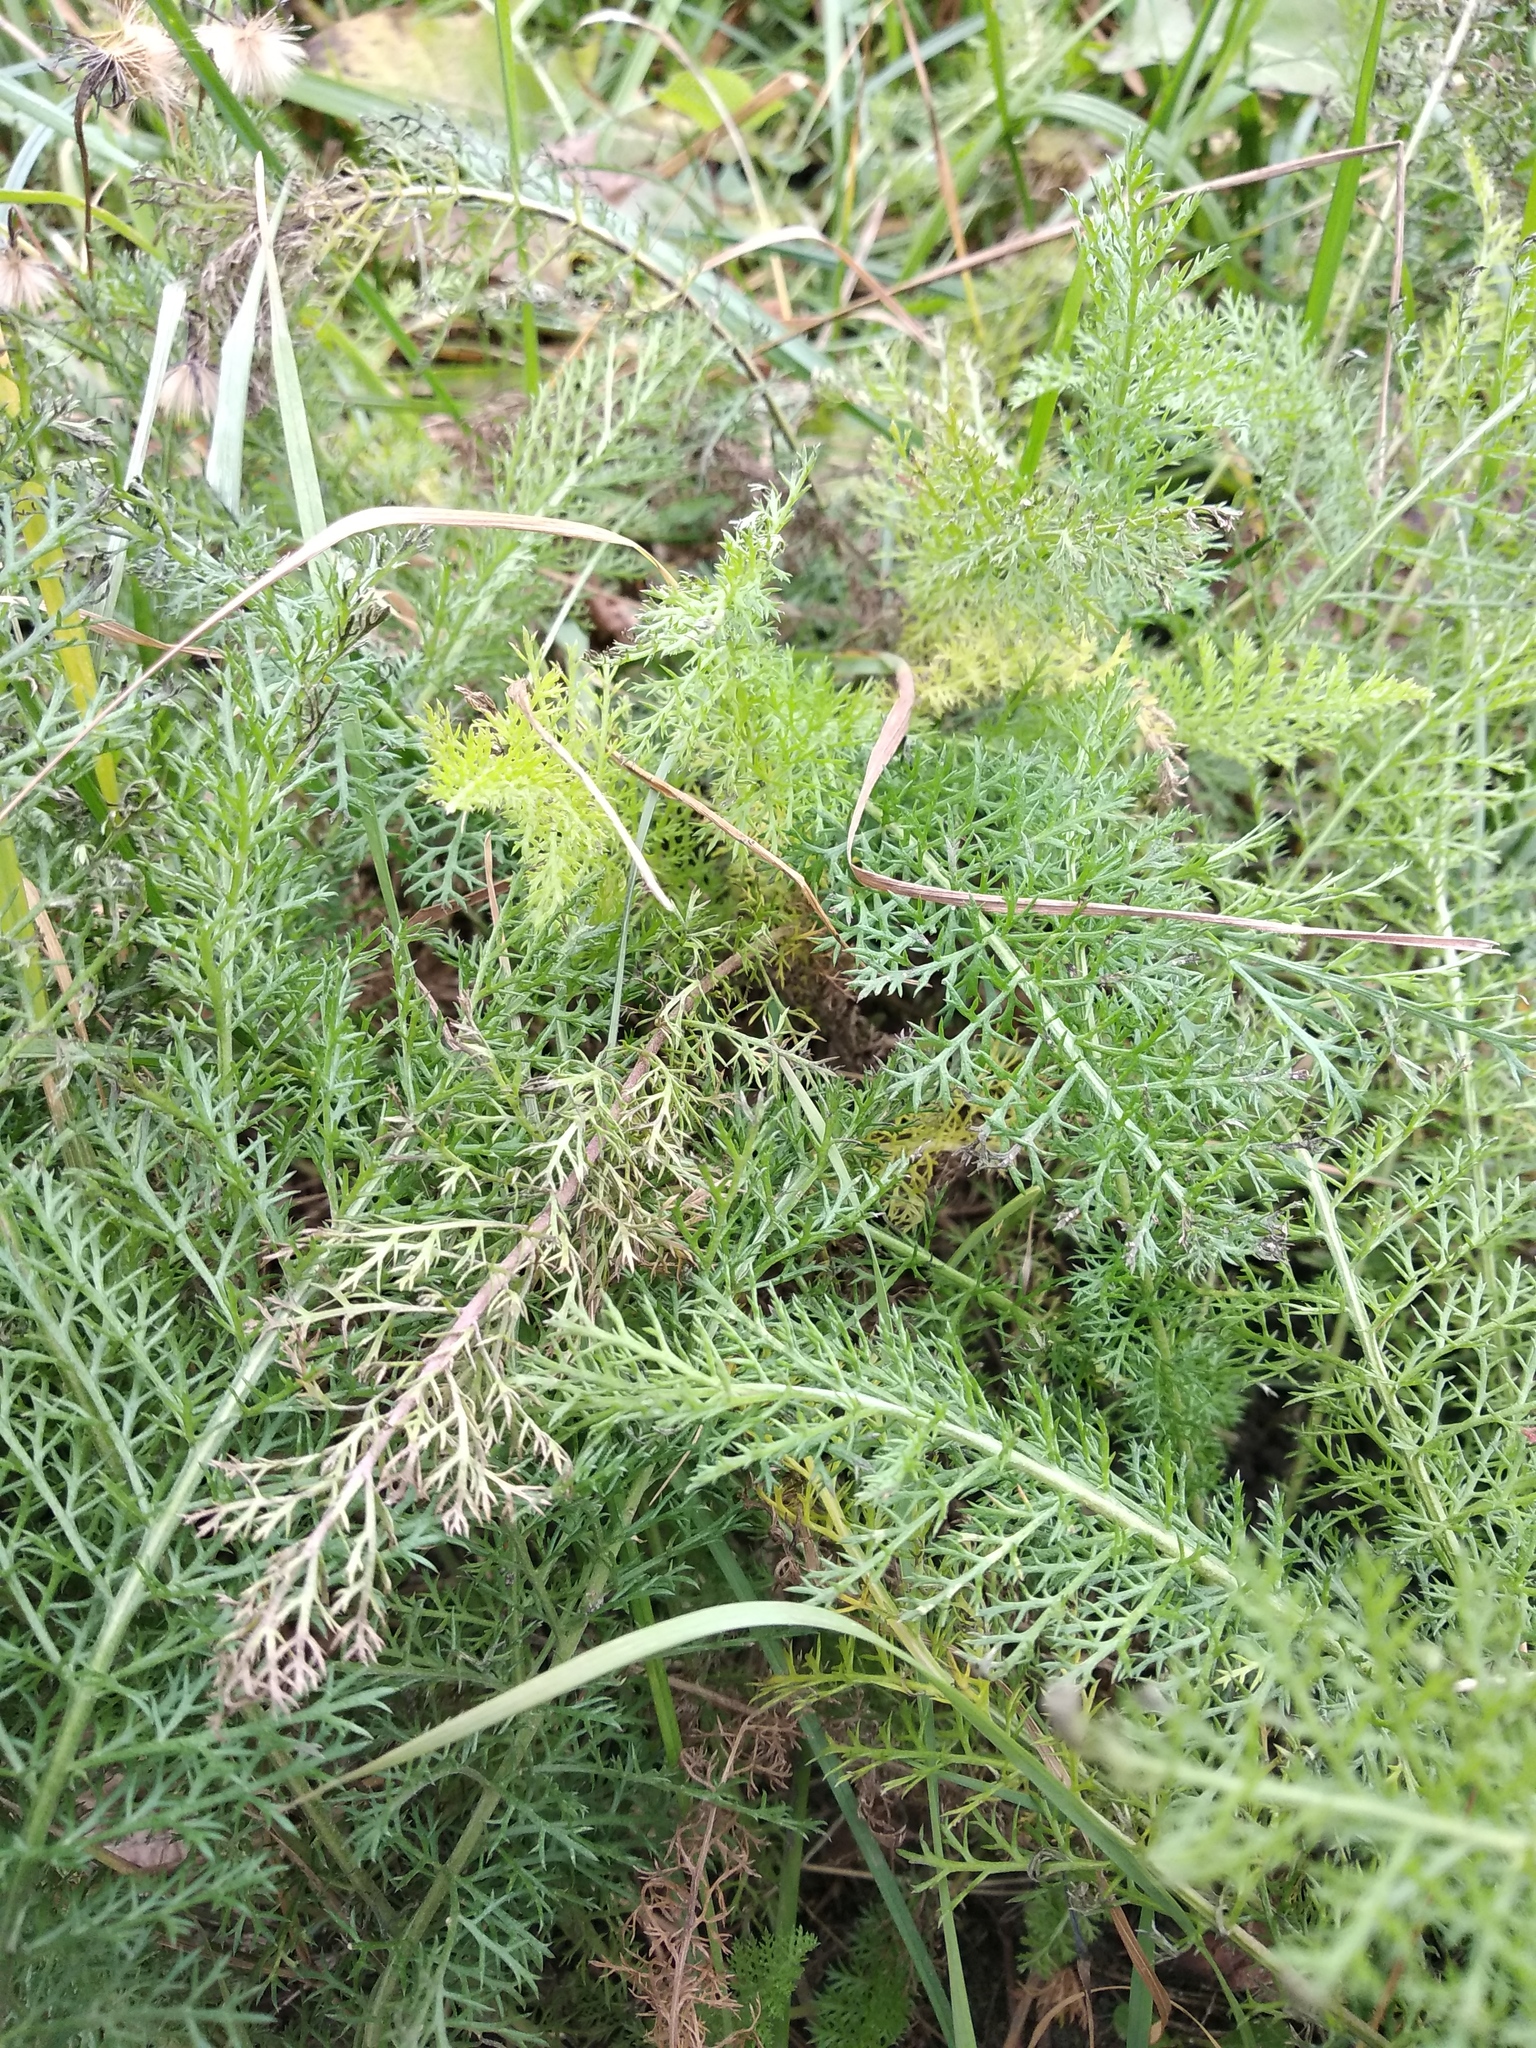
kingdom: Plantae
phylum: Tracheophyta
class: Magnoliopsida
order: Asterales
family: Asteraceae
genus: Achillea
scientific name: Achillea millefolium
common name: Yarrow
